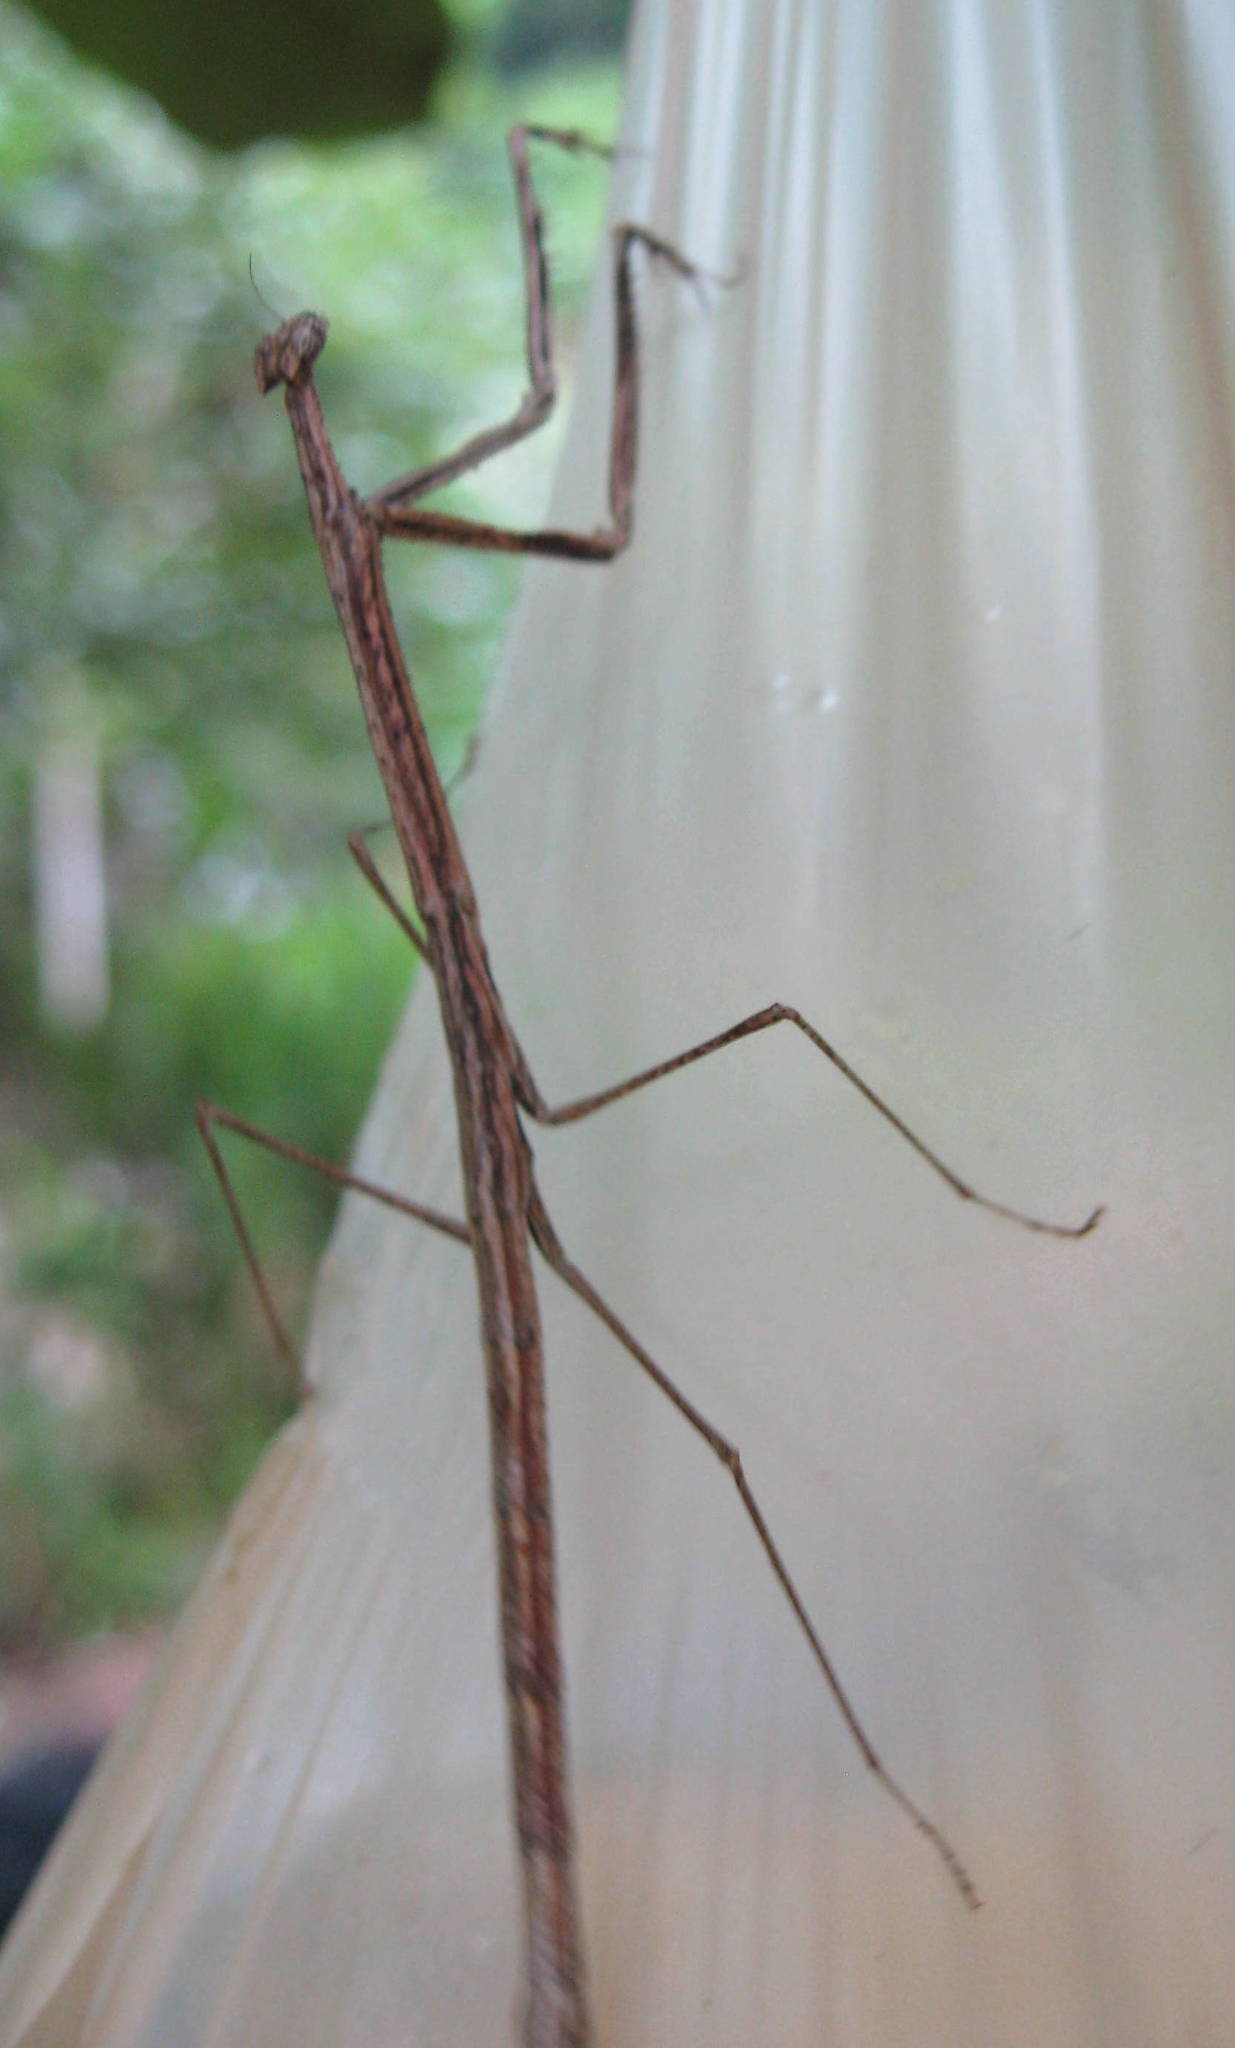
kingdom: Animalia
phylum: Arthropoda
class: Insecta
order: Mantodea
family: Thespidae
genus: Bistanta
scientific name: Bistanta mexicana
